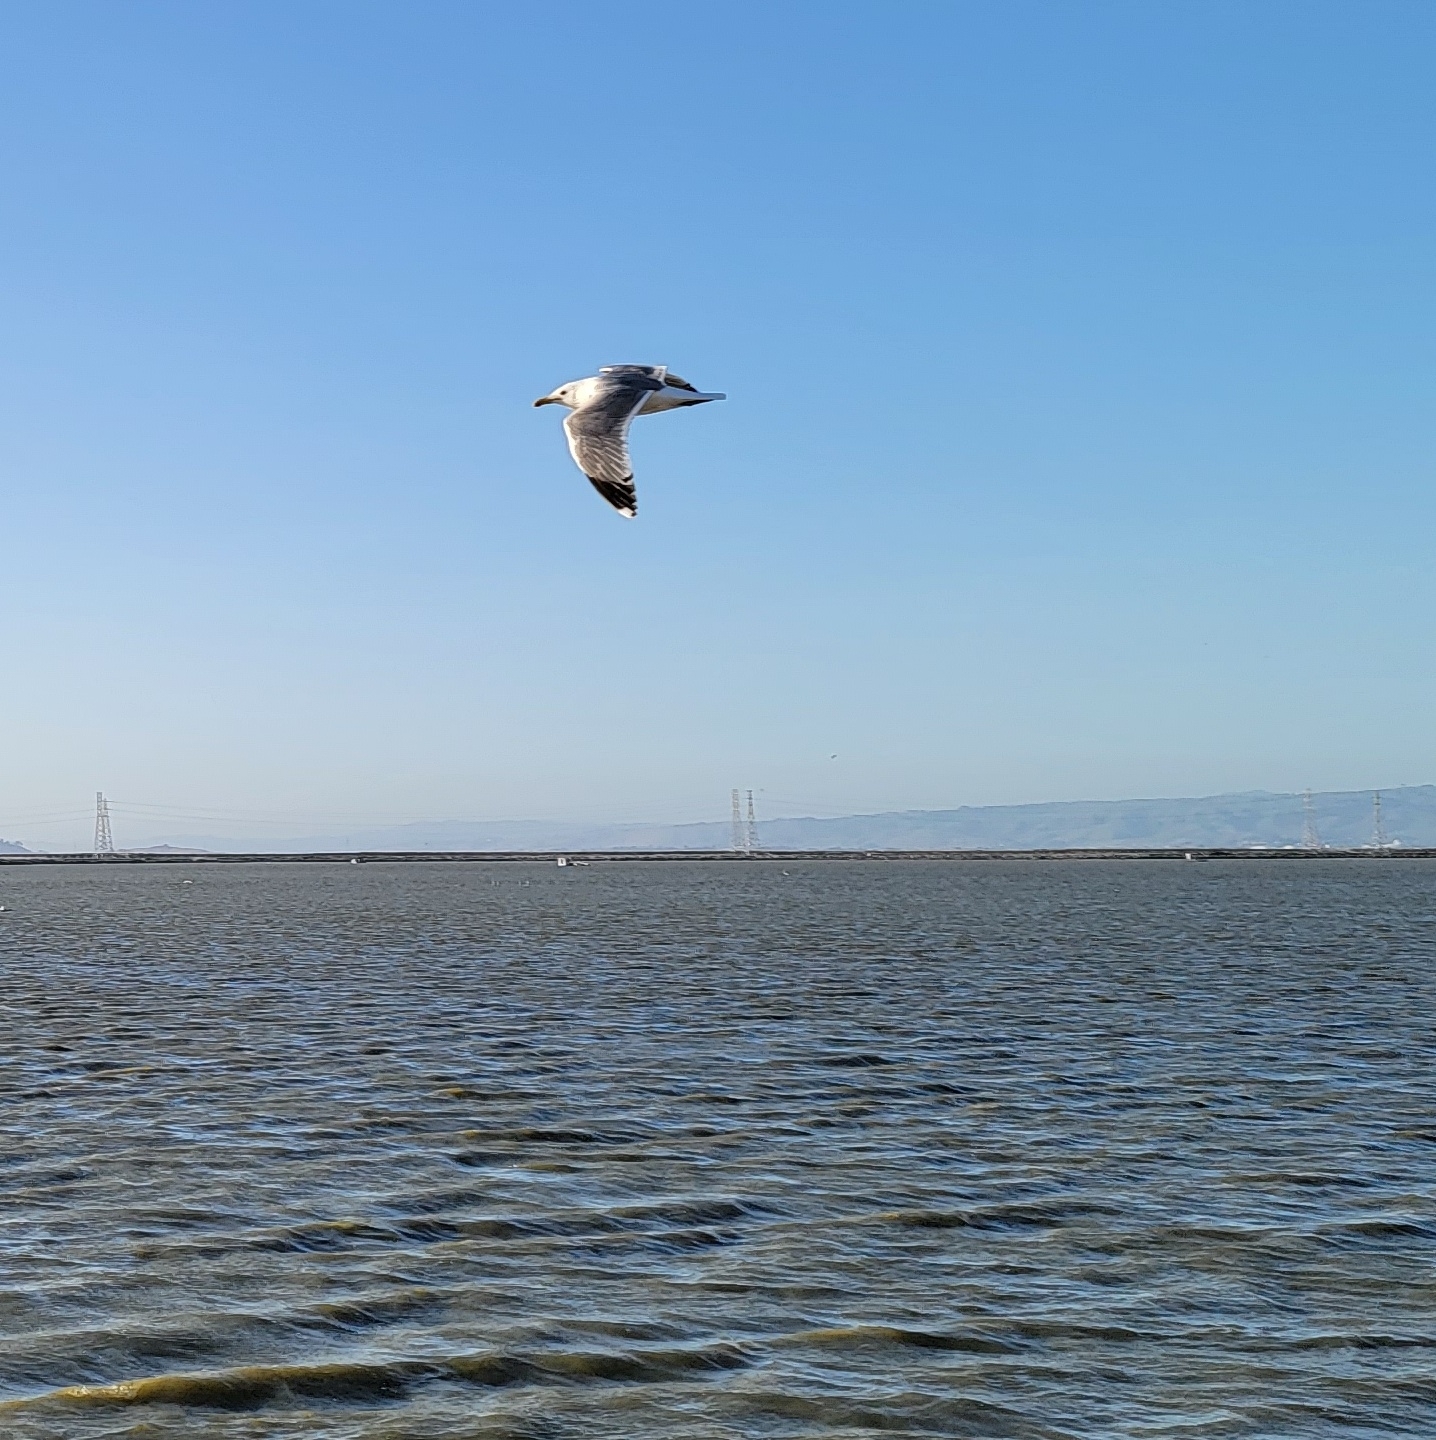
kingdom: Animalia
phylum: Chordata
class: Aves
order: Charadriiformes
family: Laridae
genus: Larus
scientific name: Larus californicus
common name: California gull
